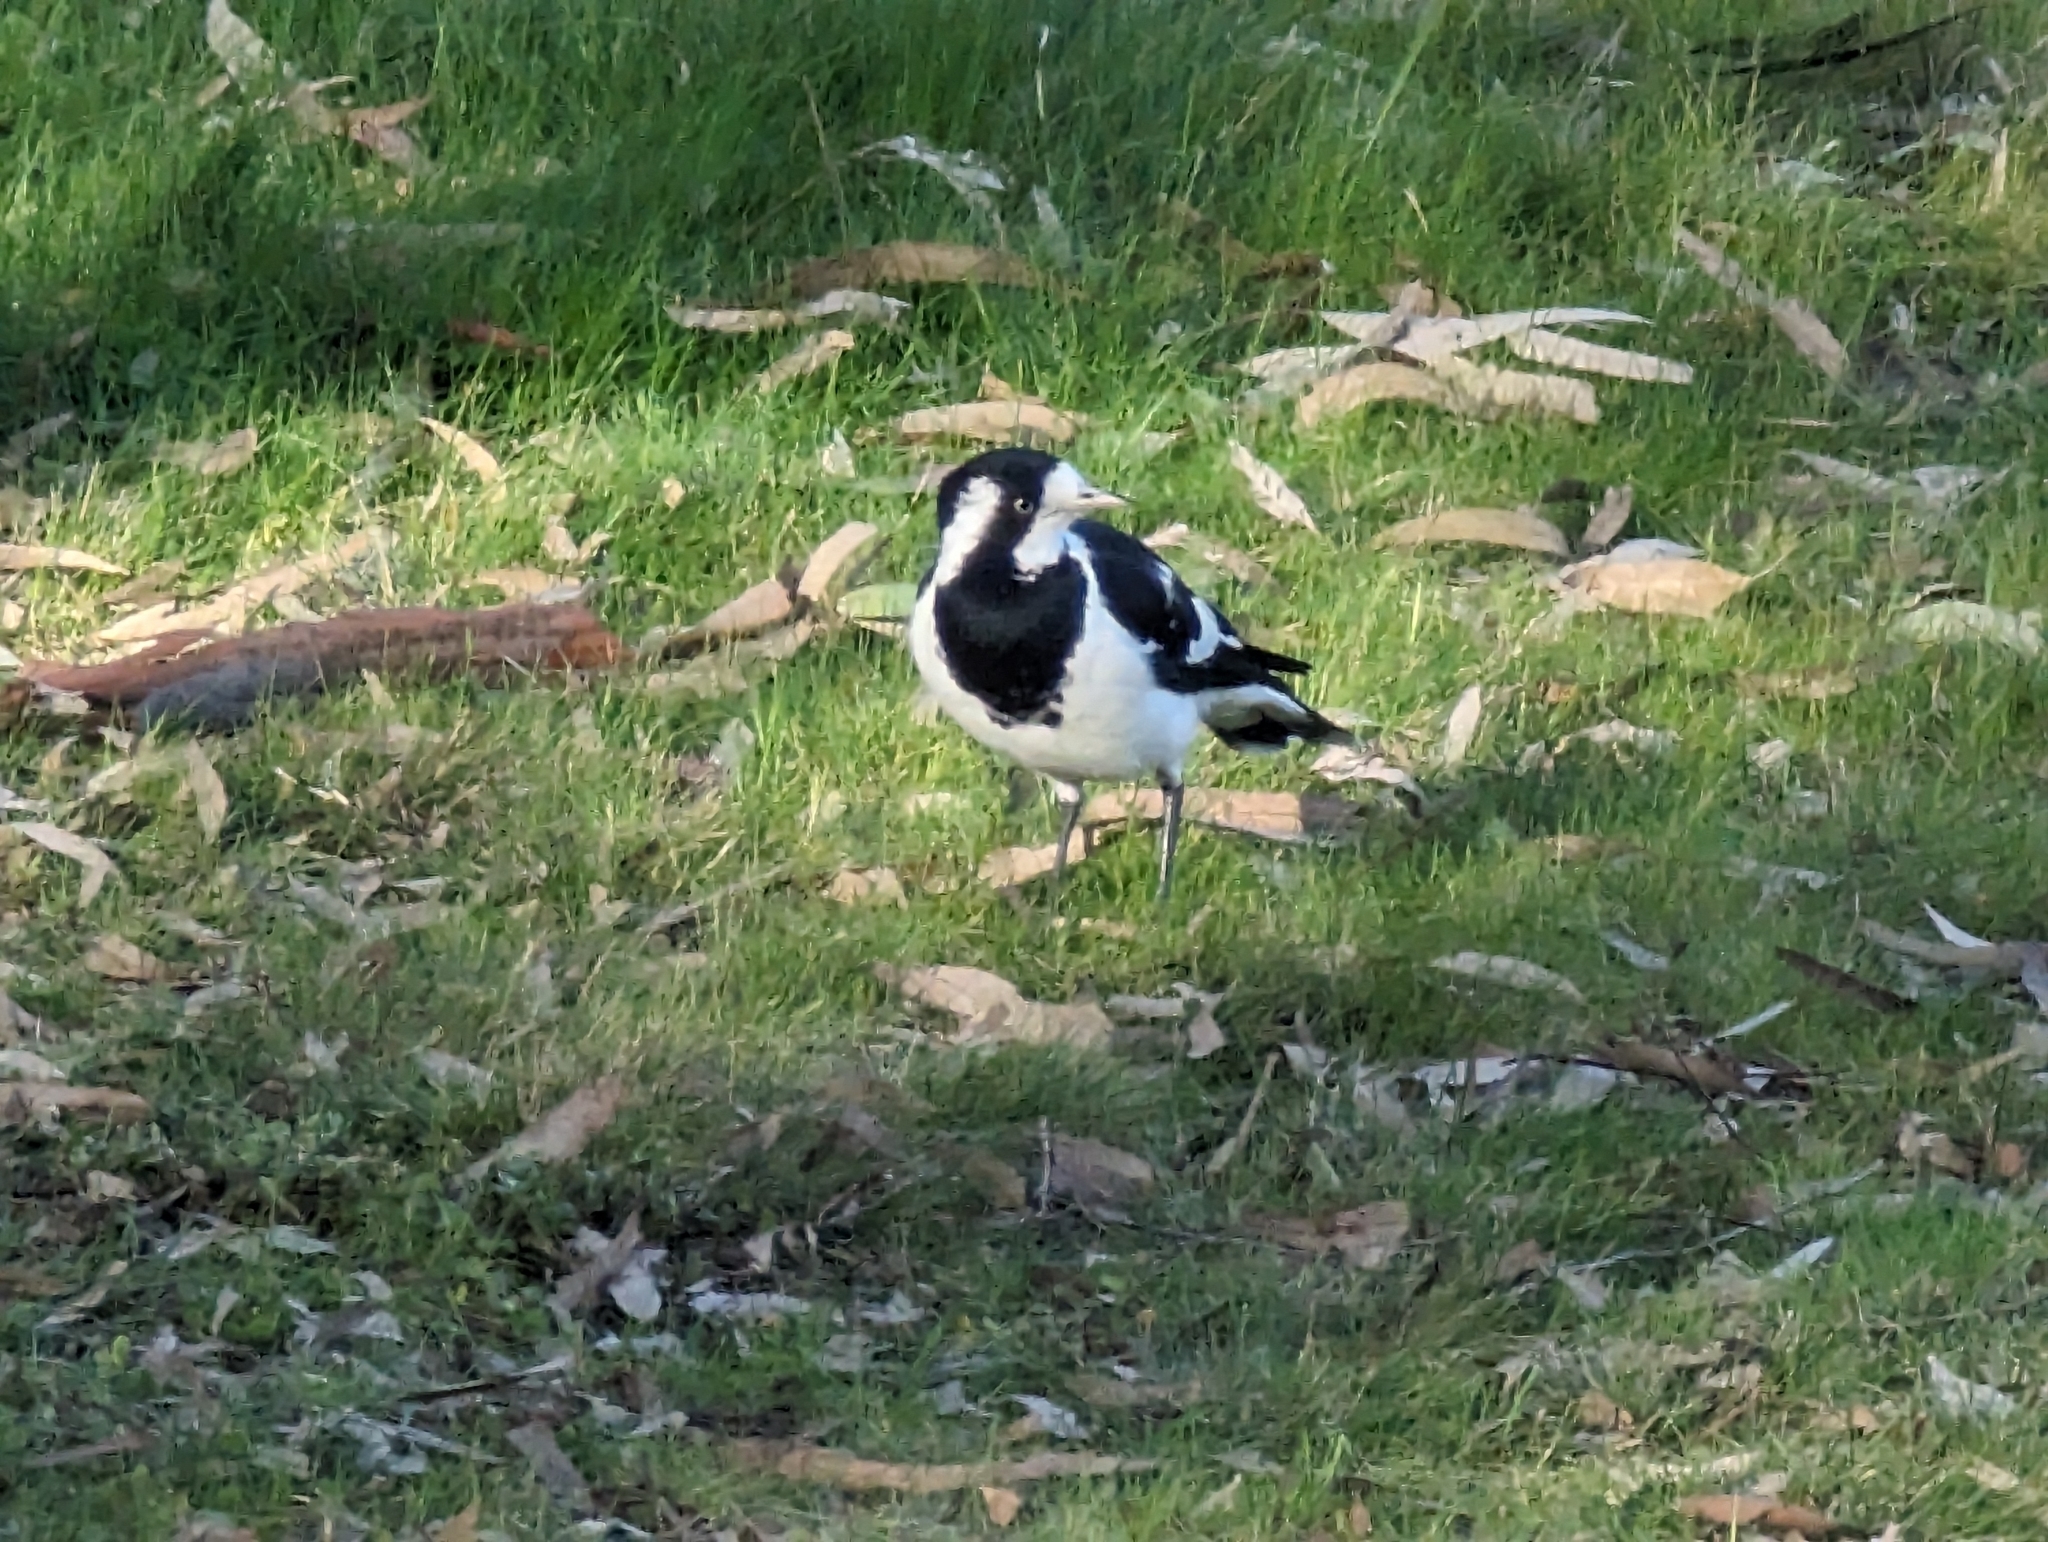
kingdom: Animalia
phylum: Chordata
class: Aves
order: Passeriformes
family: Monarchidae
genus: Grallina
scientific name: Grallina cyanoleuca
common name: Magpie-lark
